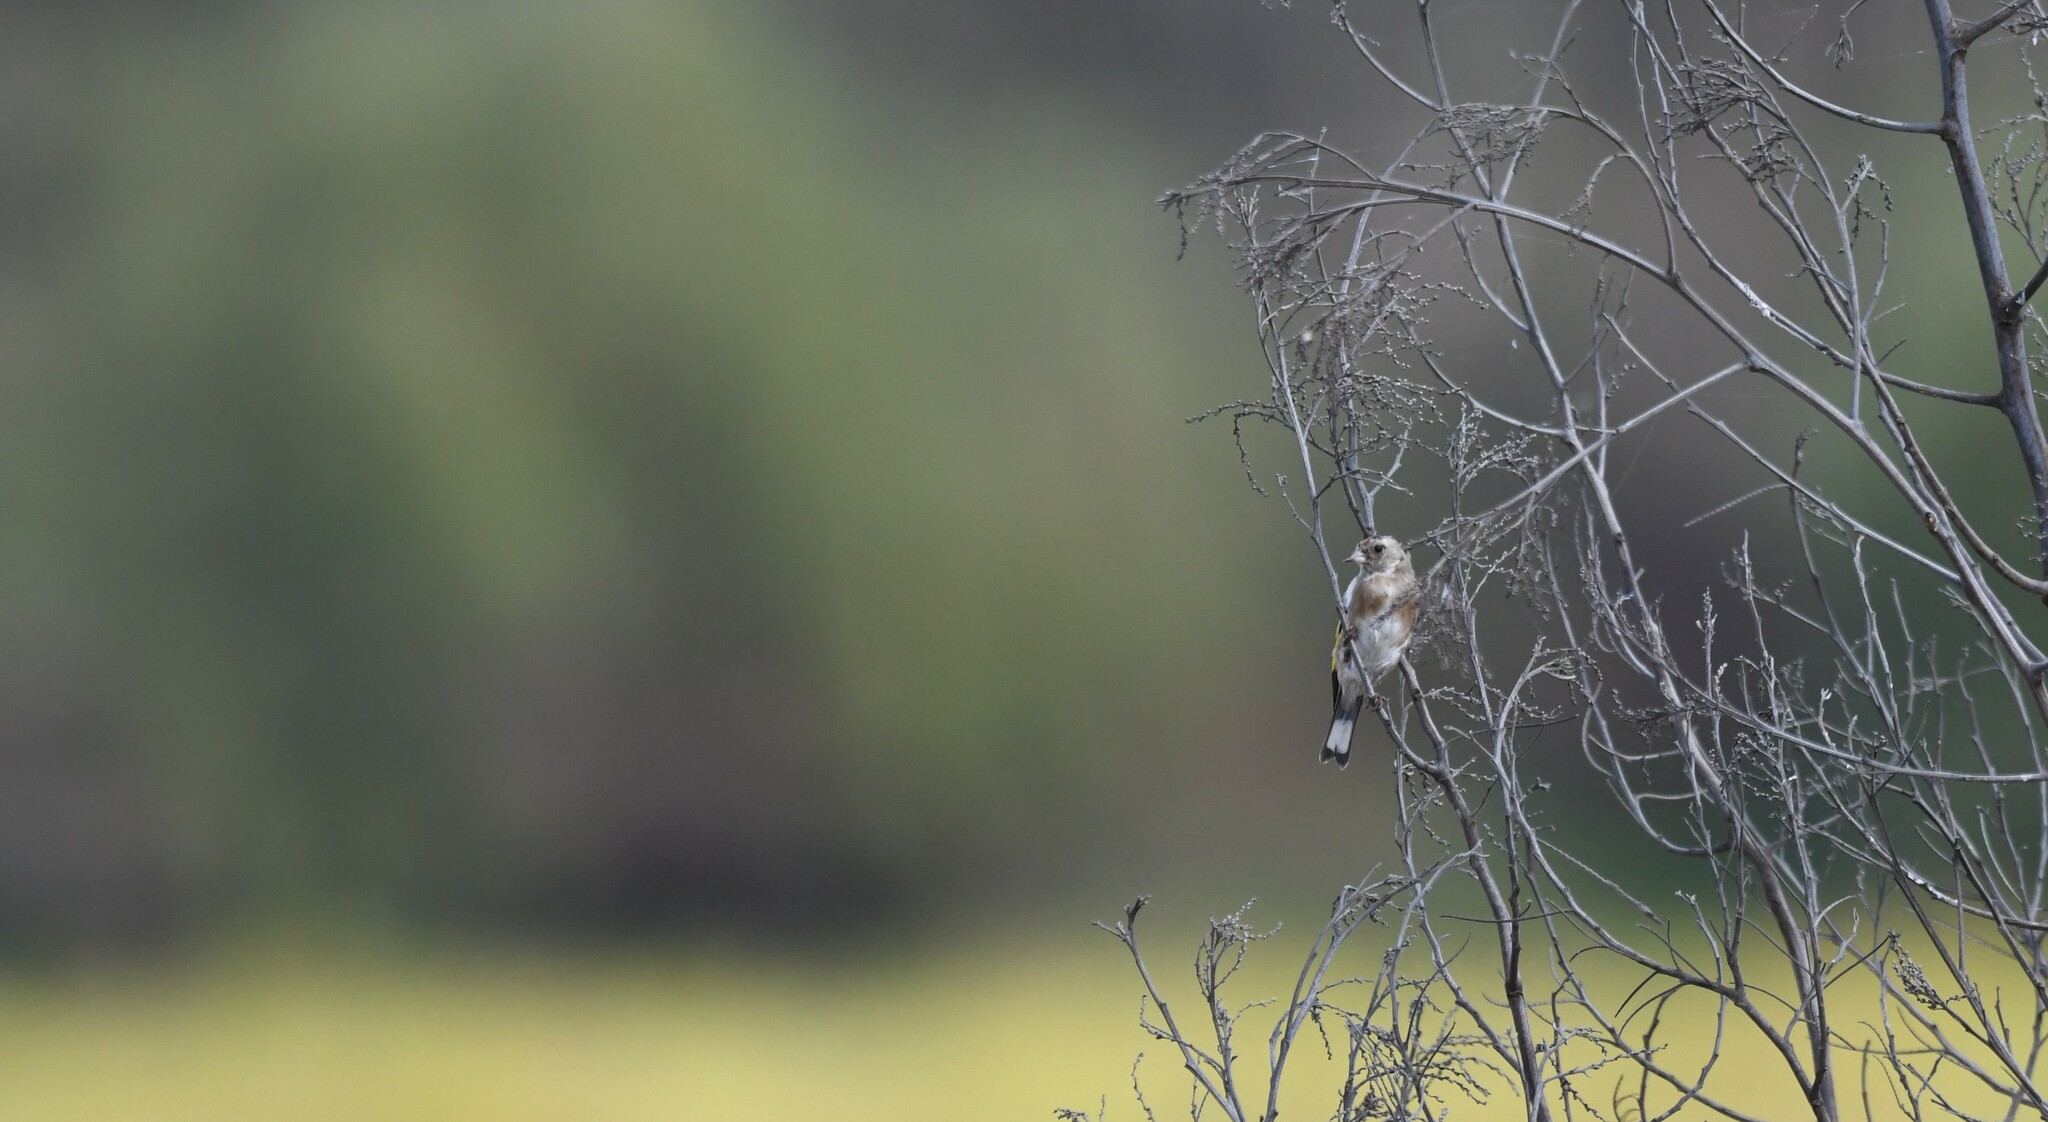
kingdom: Animalia
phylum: Chordata
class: Aves
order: Passeriformes
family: Fringillidae
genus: Carduelis
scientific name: Carduelis carduelis
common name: European goldfinch
